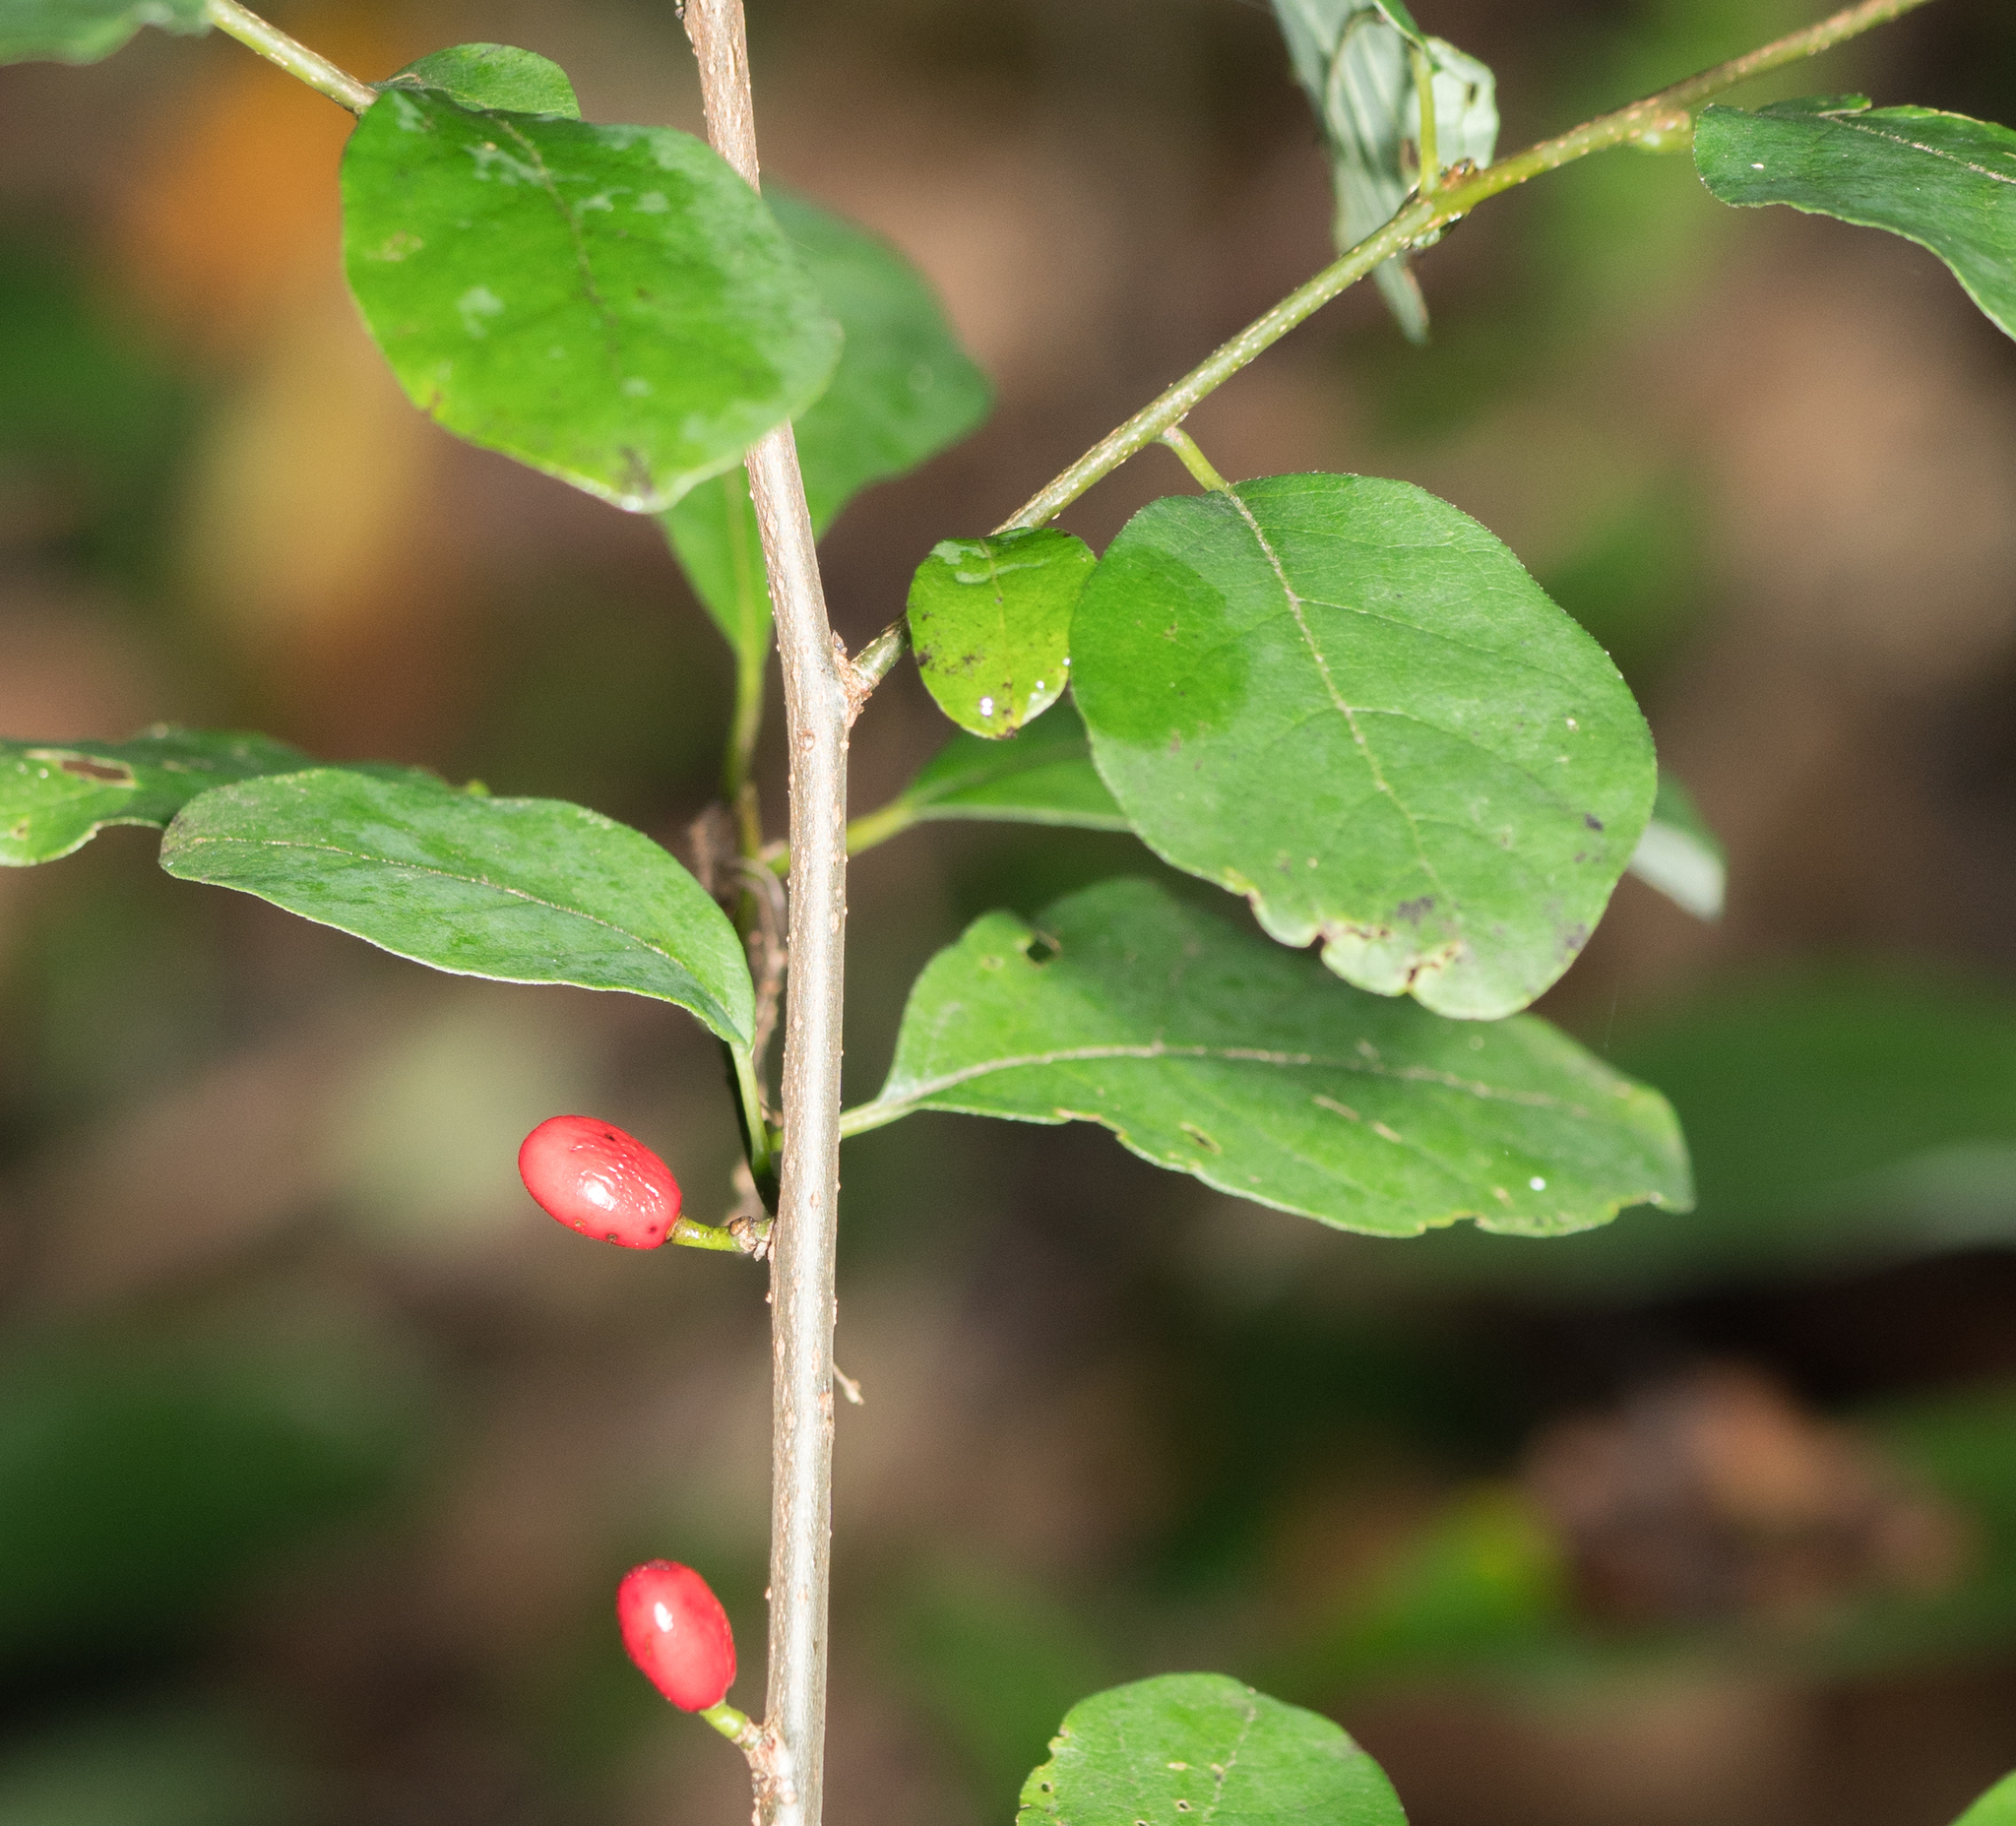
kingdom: Plantae
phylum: Tracheophyta
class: Magnoliopsida
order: Laurales
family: Lauraceae
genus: Lindera
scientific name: Lindera benzoin
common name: Spicebush
